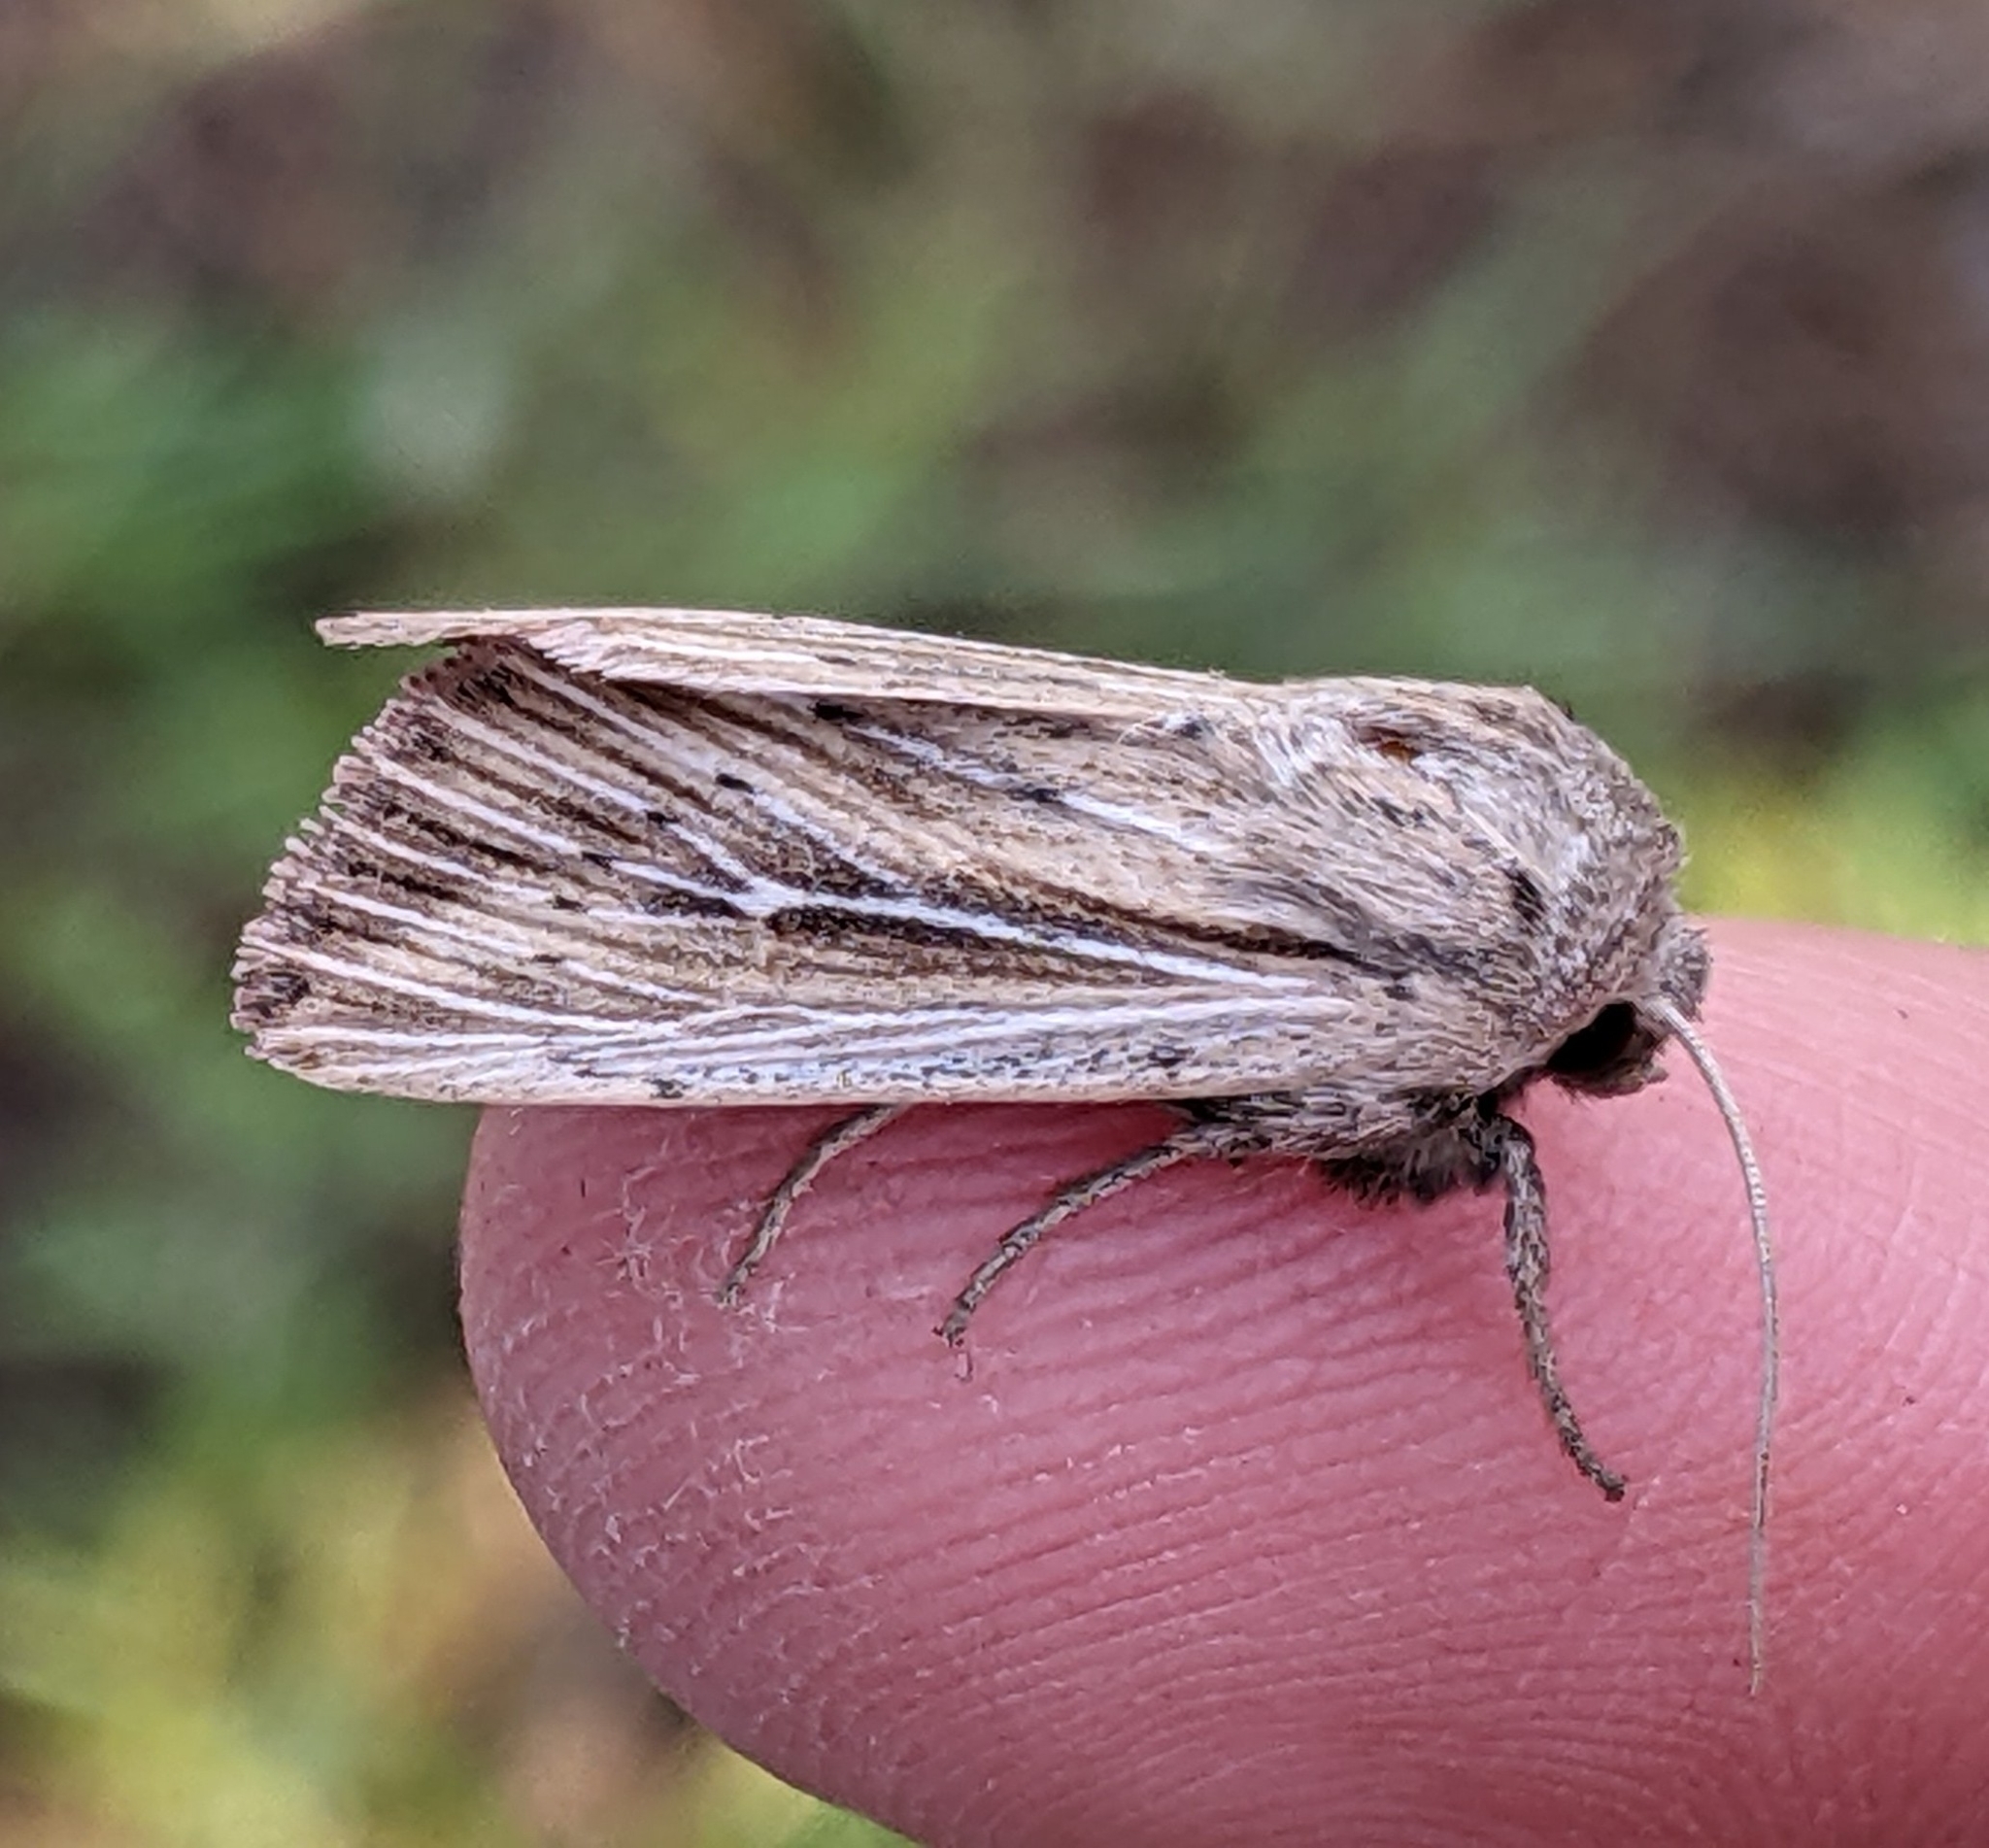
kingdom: Animalia
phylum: Arthropoda
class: Insecta
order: Lepidoptera
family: Noctuidae
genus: Leucania
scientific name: Leucania insueta
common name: Heterodox wainscot moth
